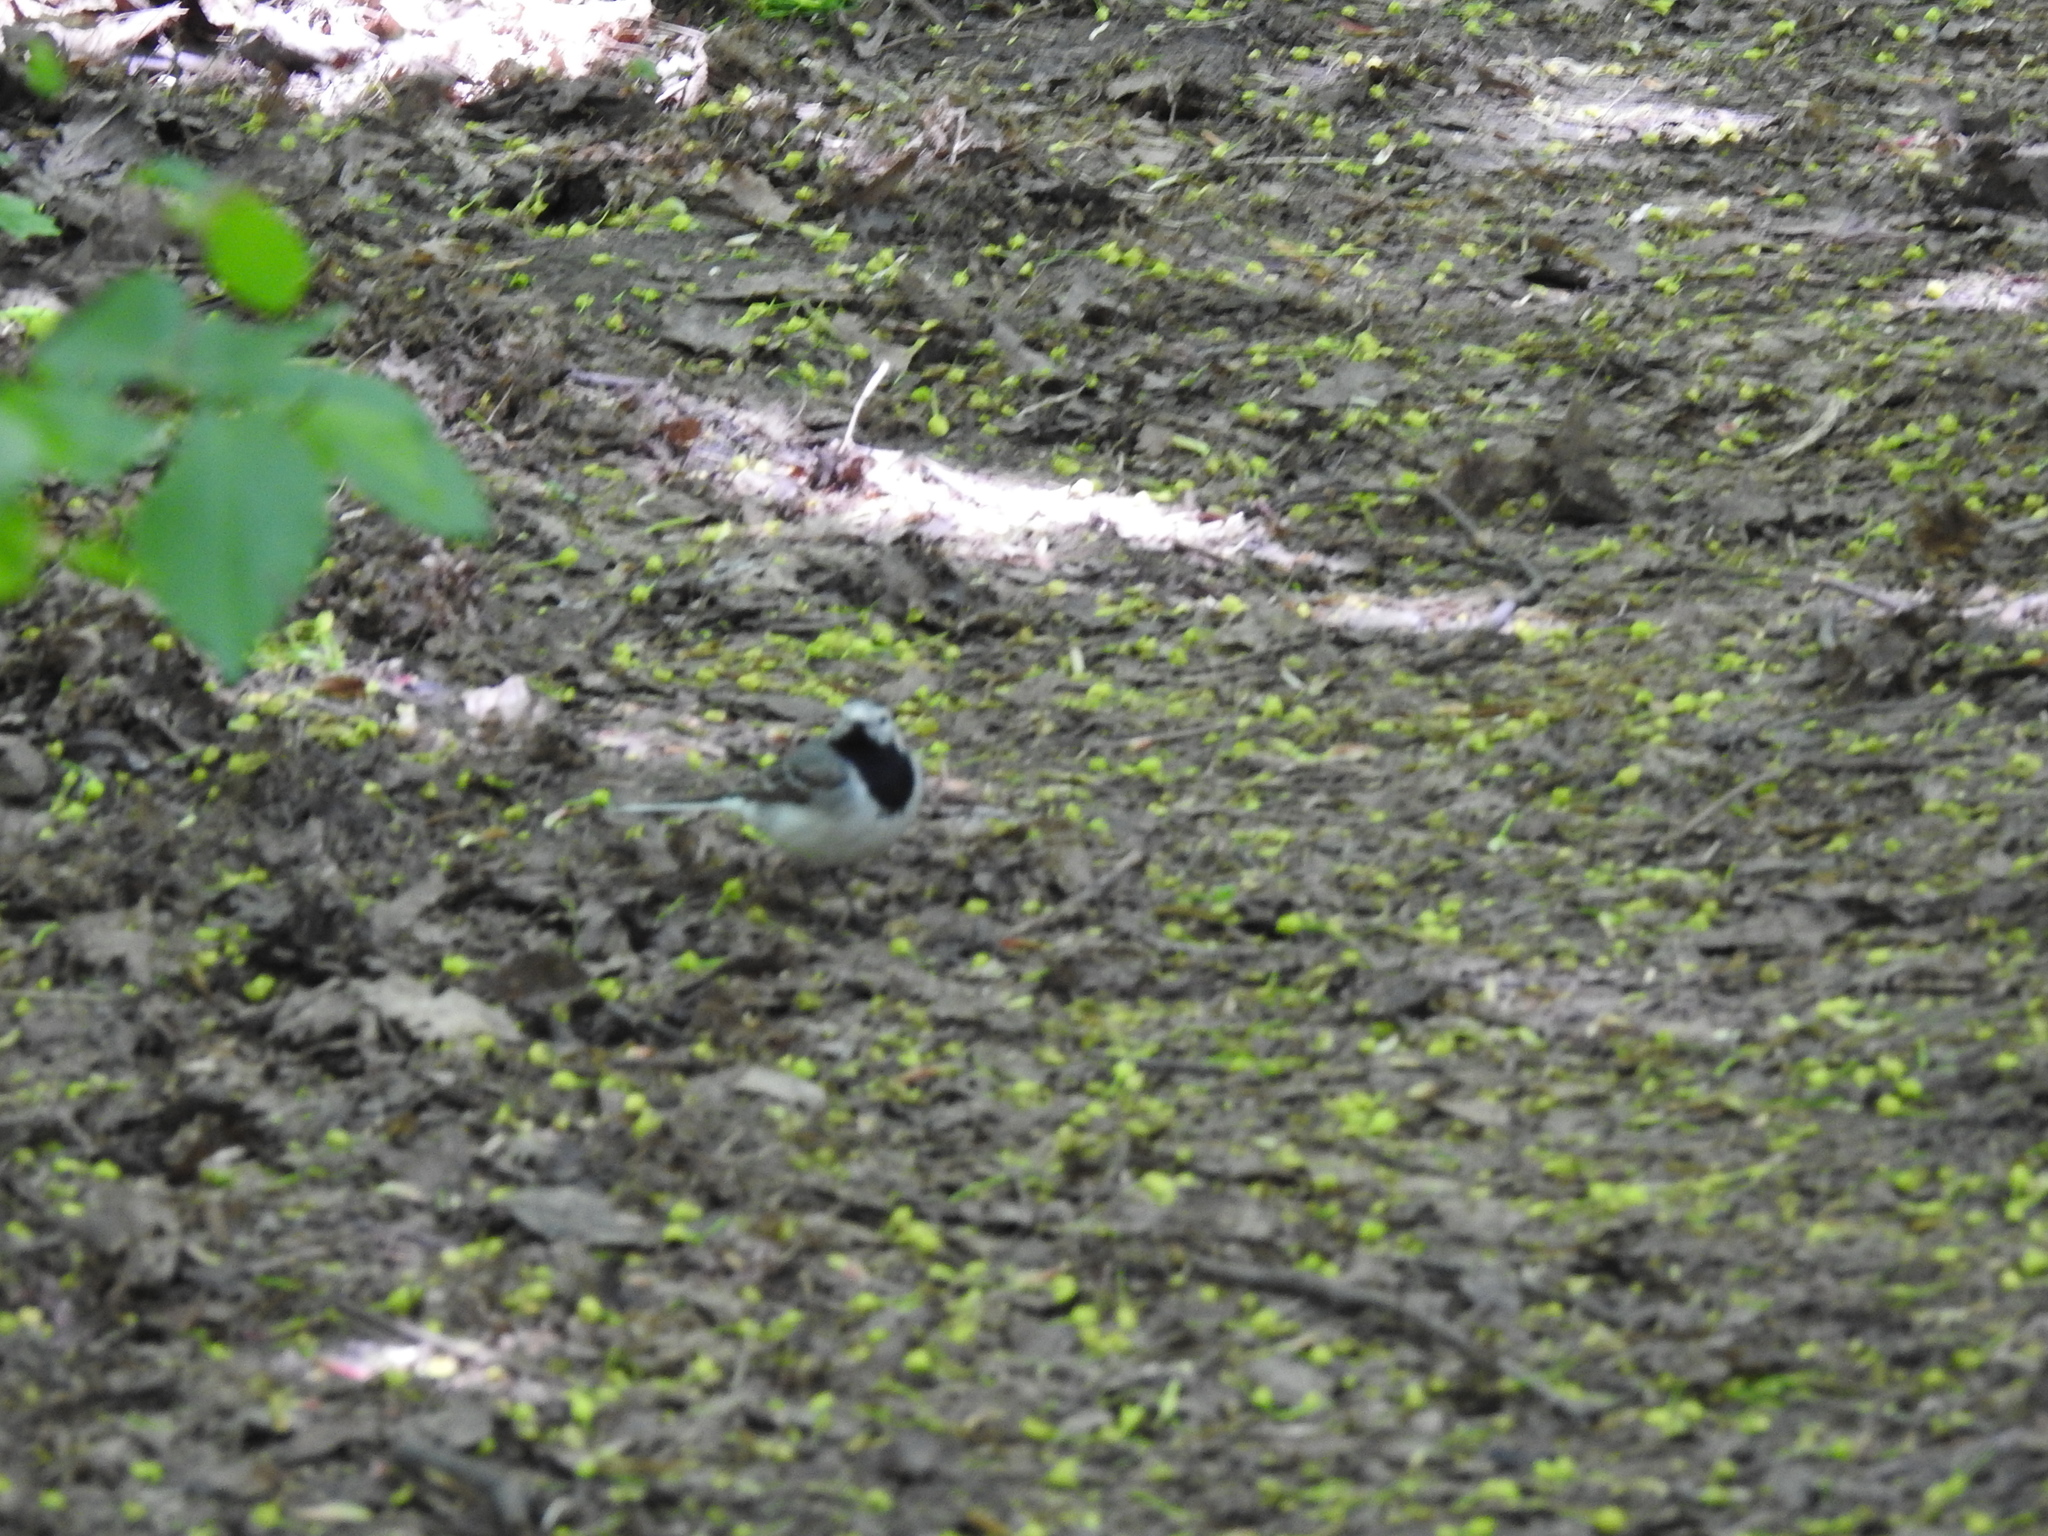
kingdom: Animalia
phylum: Chordata
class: Aves
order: Passeriformes
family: Motacillidae
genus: Motacilla
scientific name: Motacilla alba
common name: White wagtail
